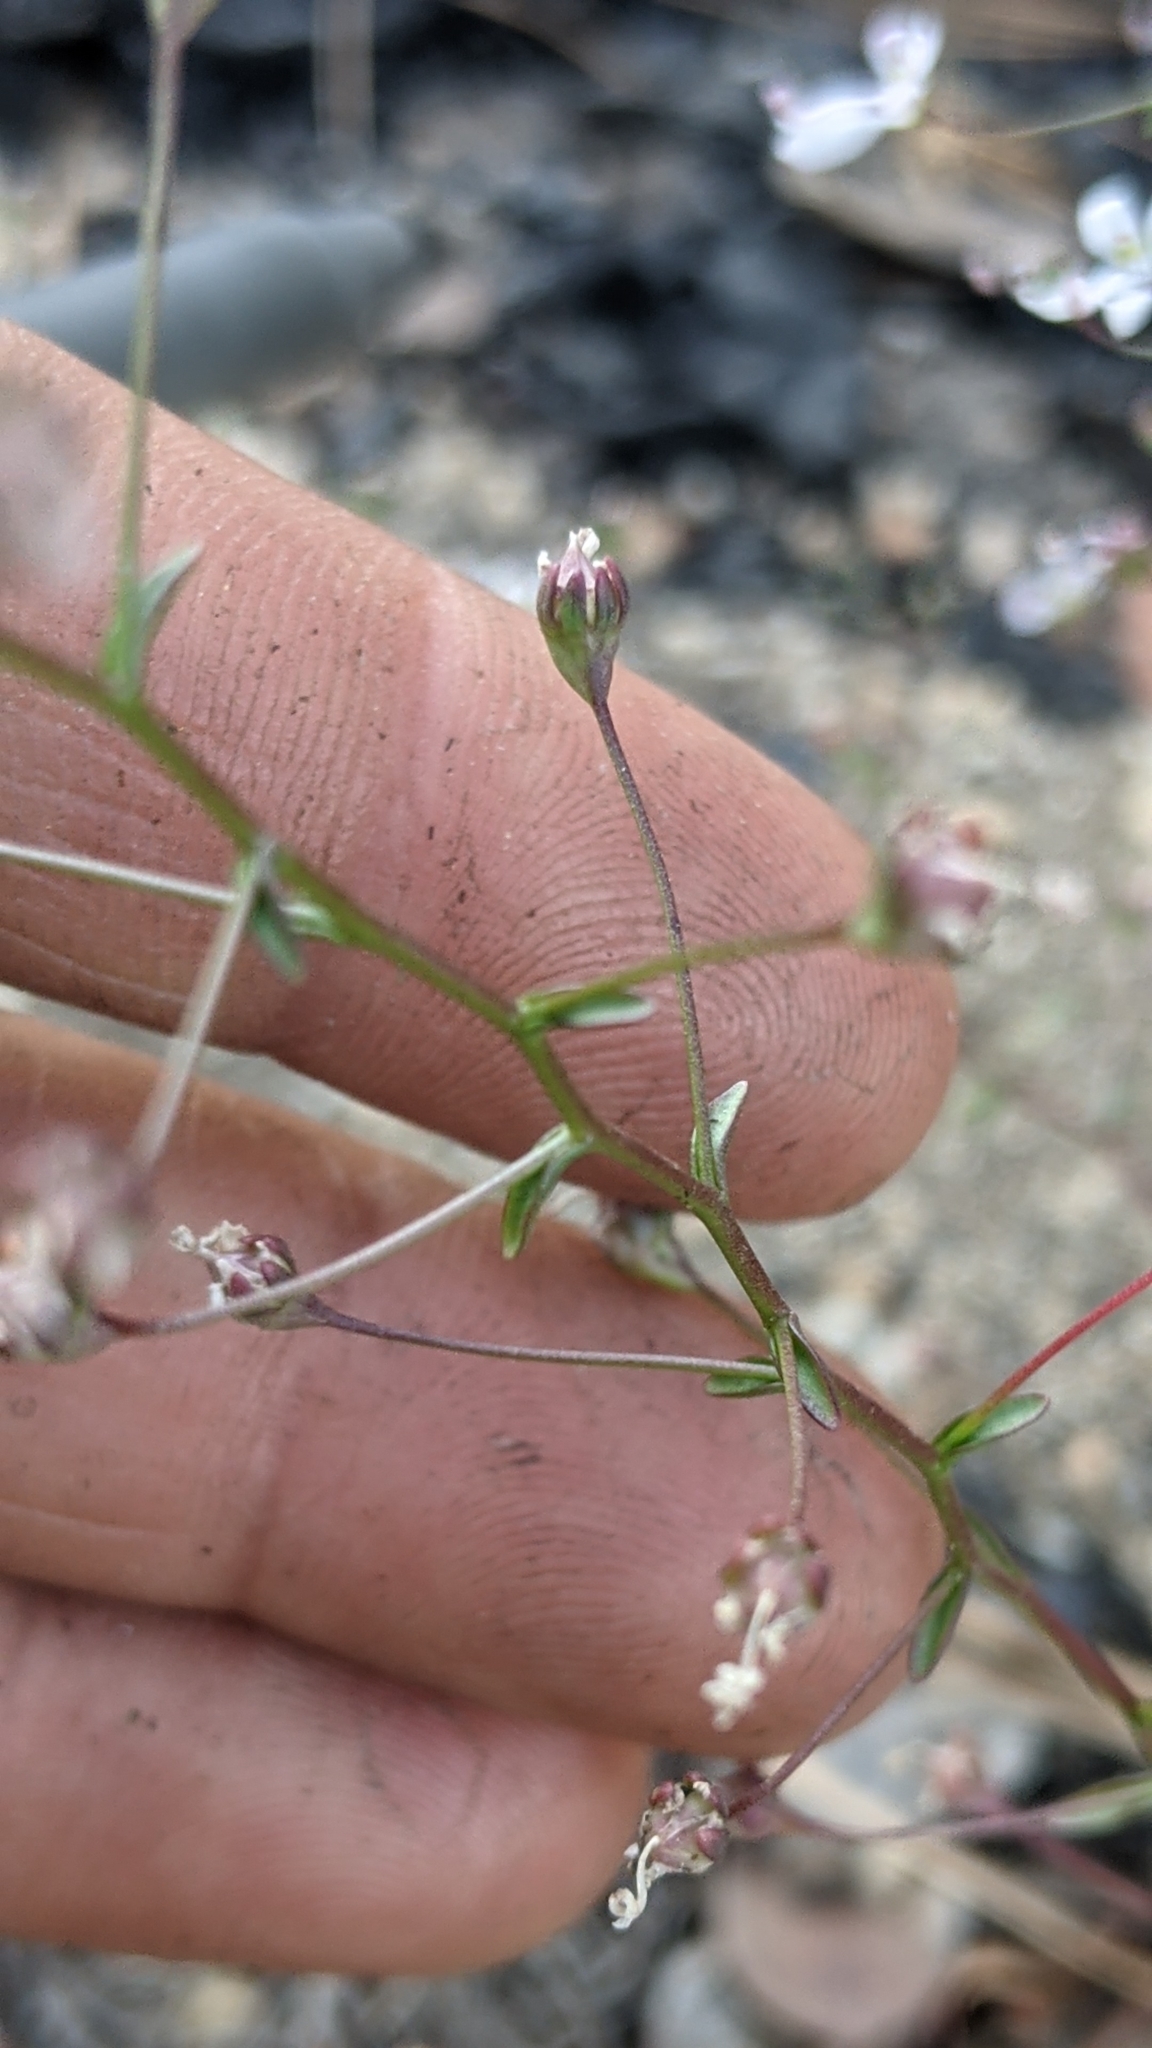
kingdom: Plantae
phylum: Tracheophyta
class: Magnoliopsida
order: Asterales
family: Campanulaceae
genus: Nemacladus
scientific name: Nemacladus interior
